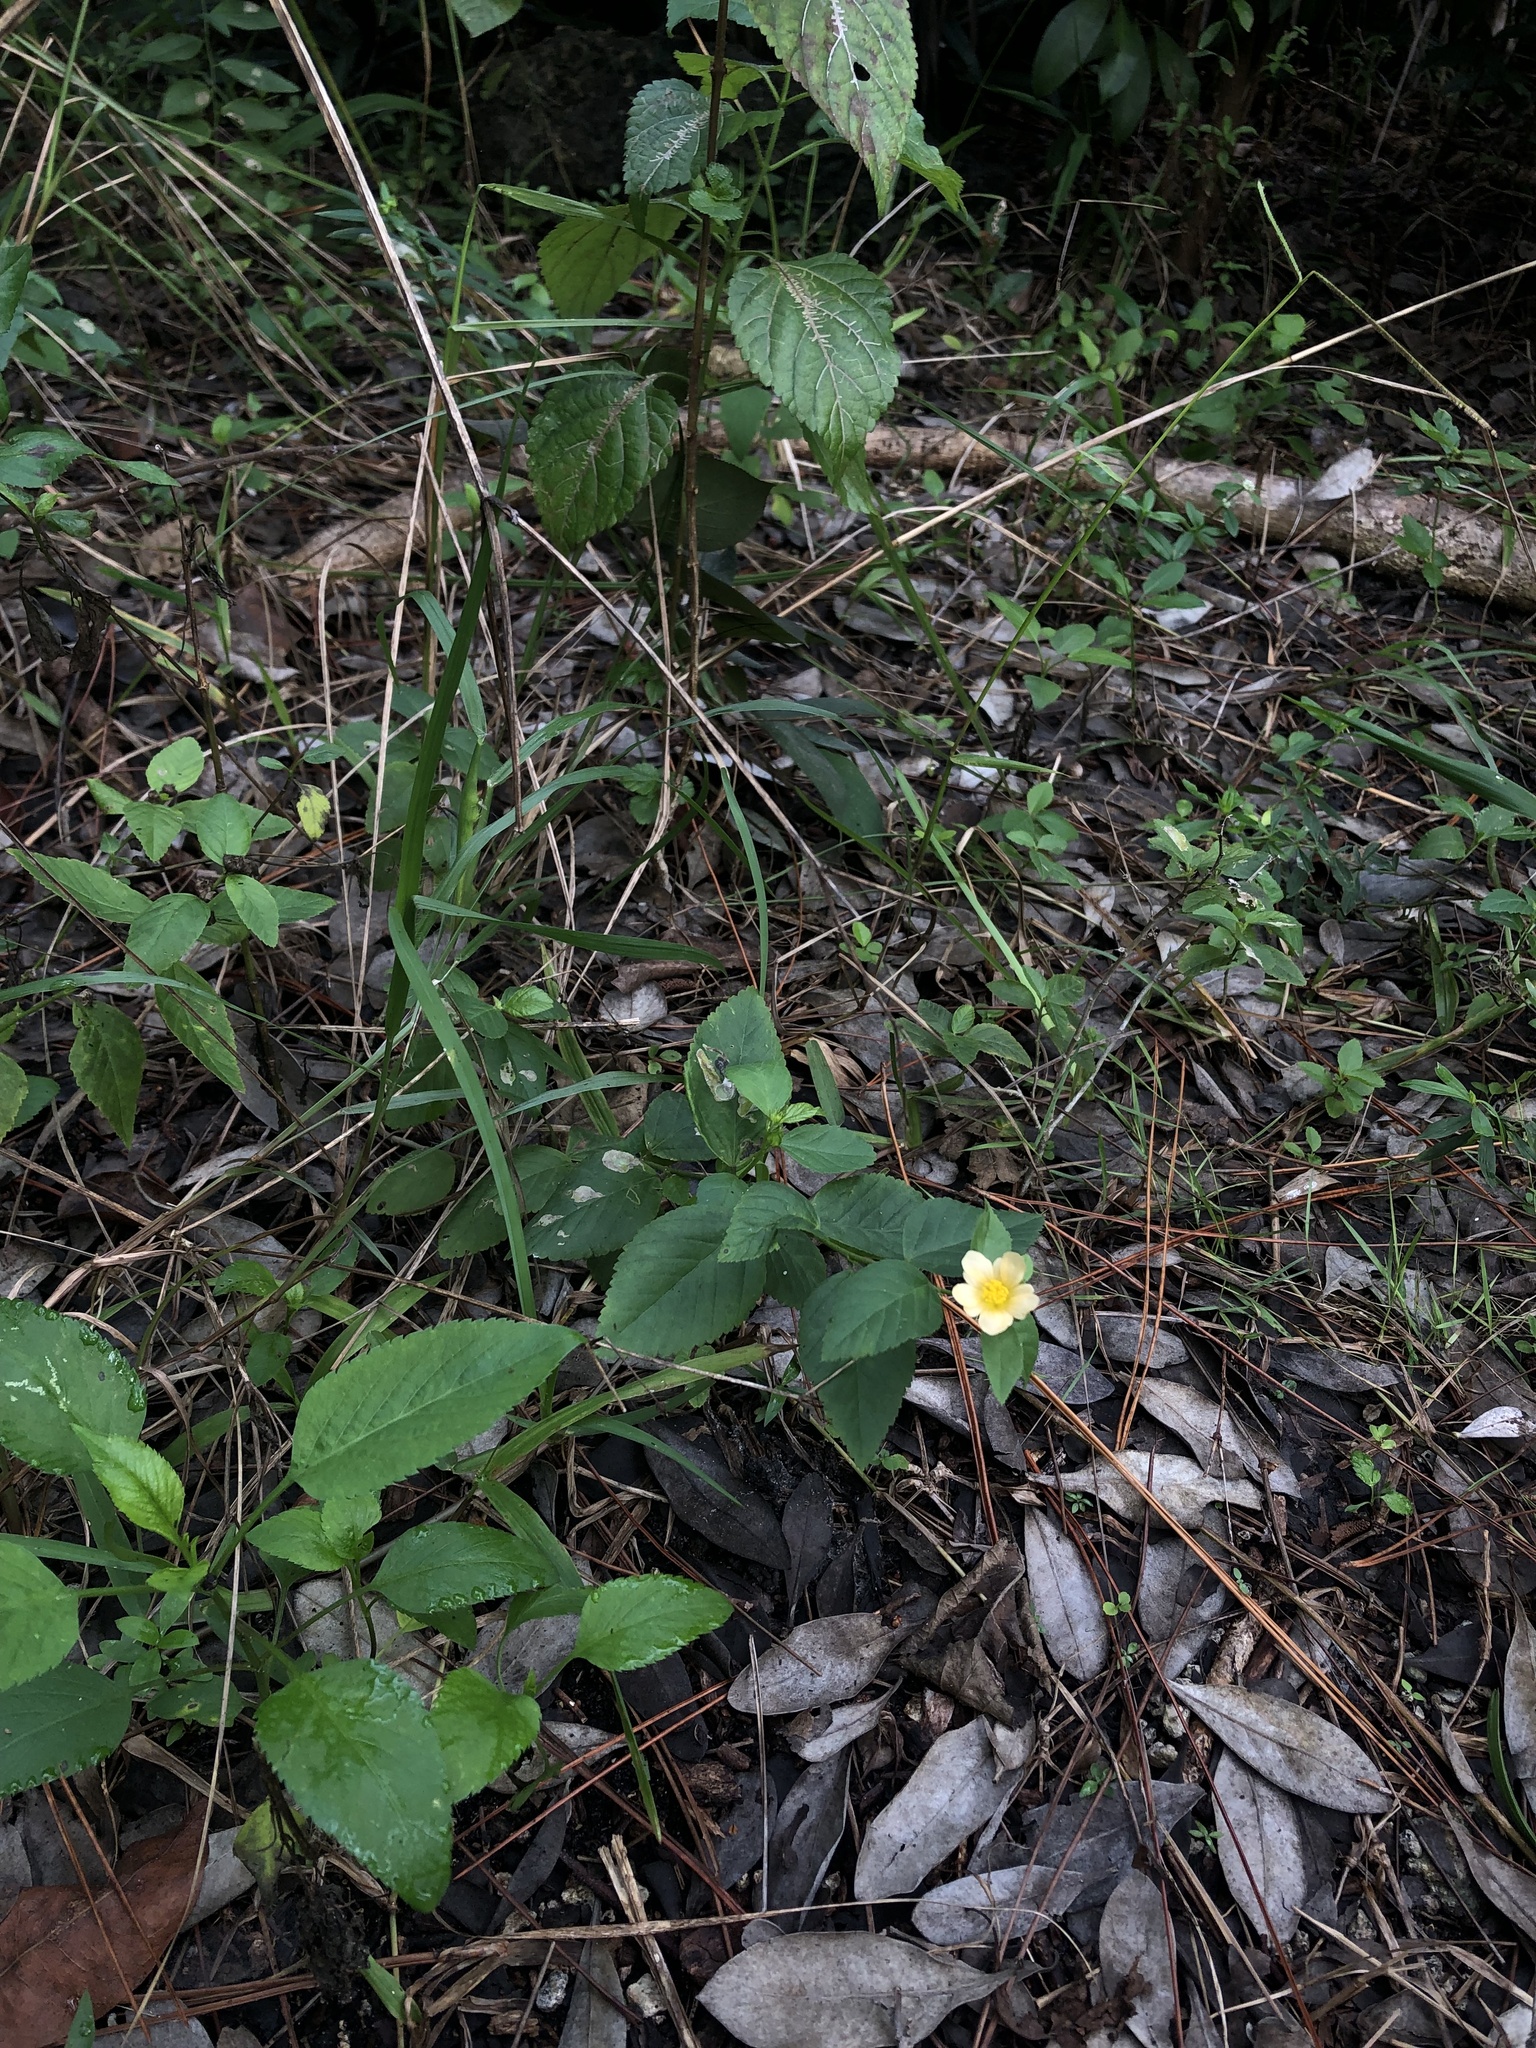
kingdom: Plantae
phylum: Tracheophyta
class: Magnoliopsida
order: Malvales
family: Malvaceae
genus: Sida
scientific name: Sida ulmifolia
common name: Broom weed
